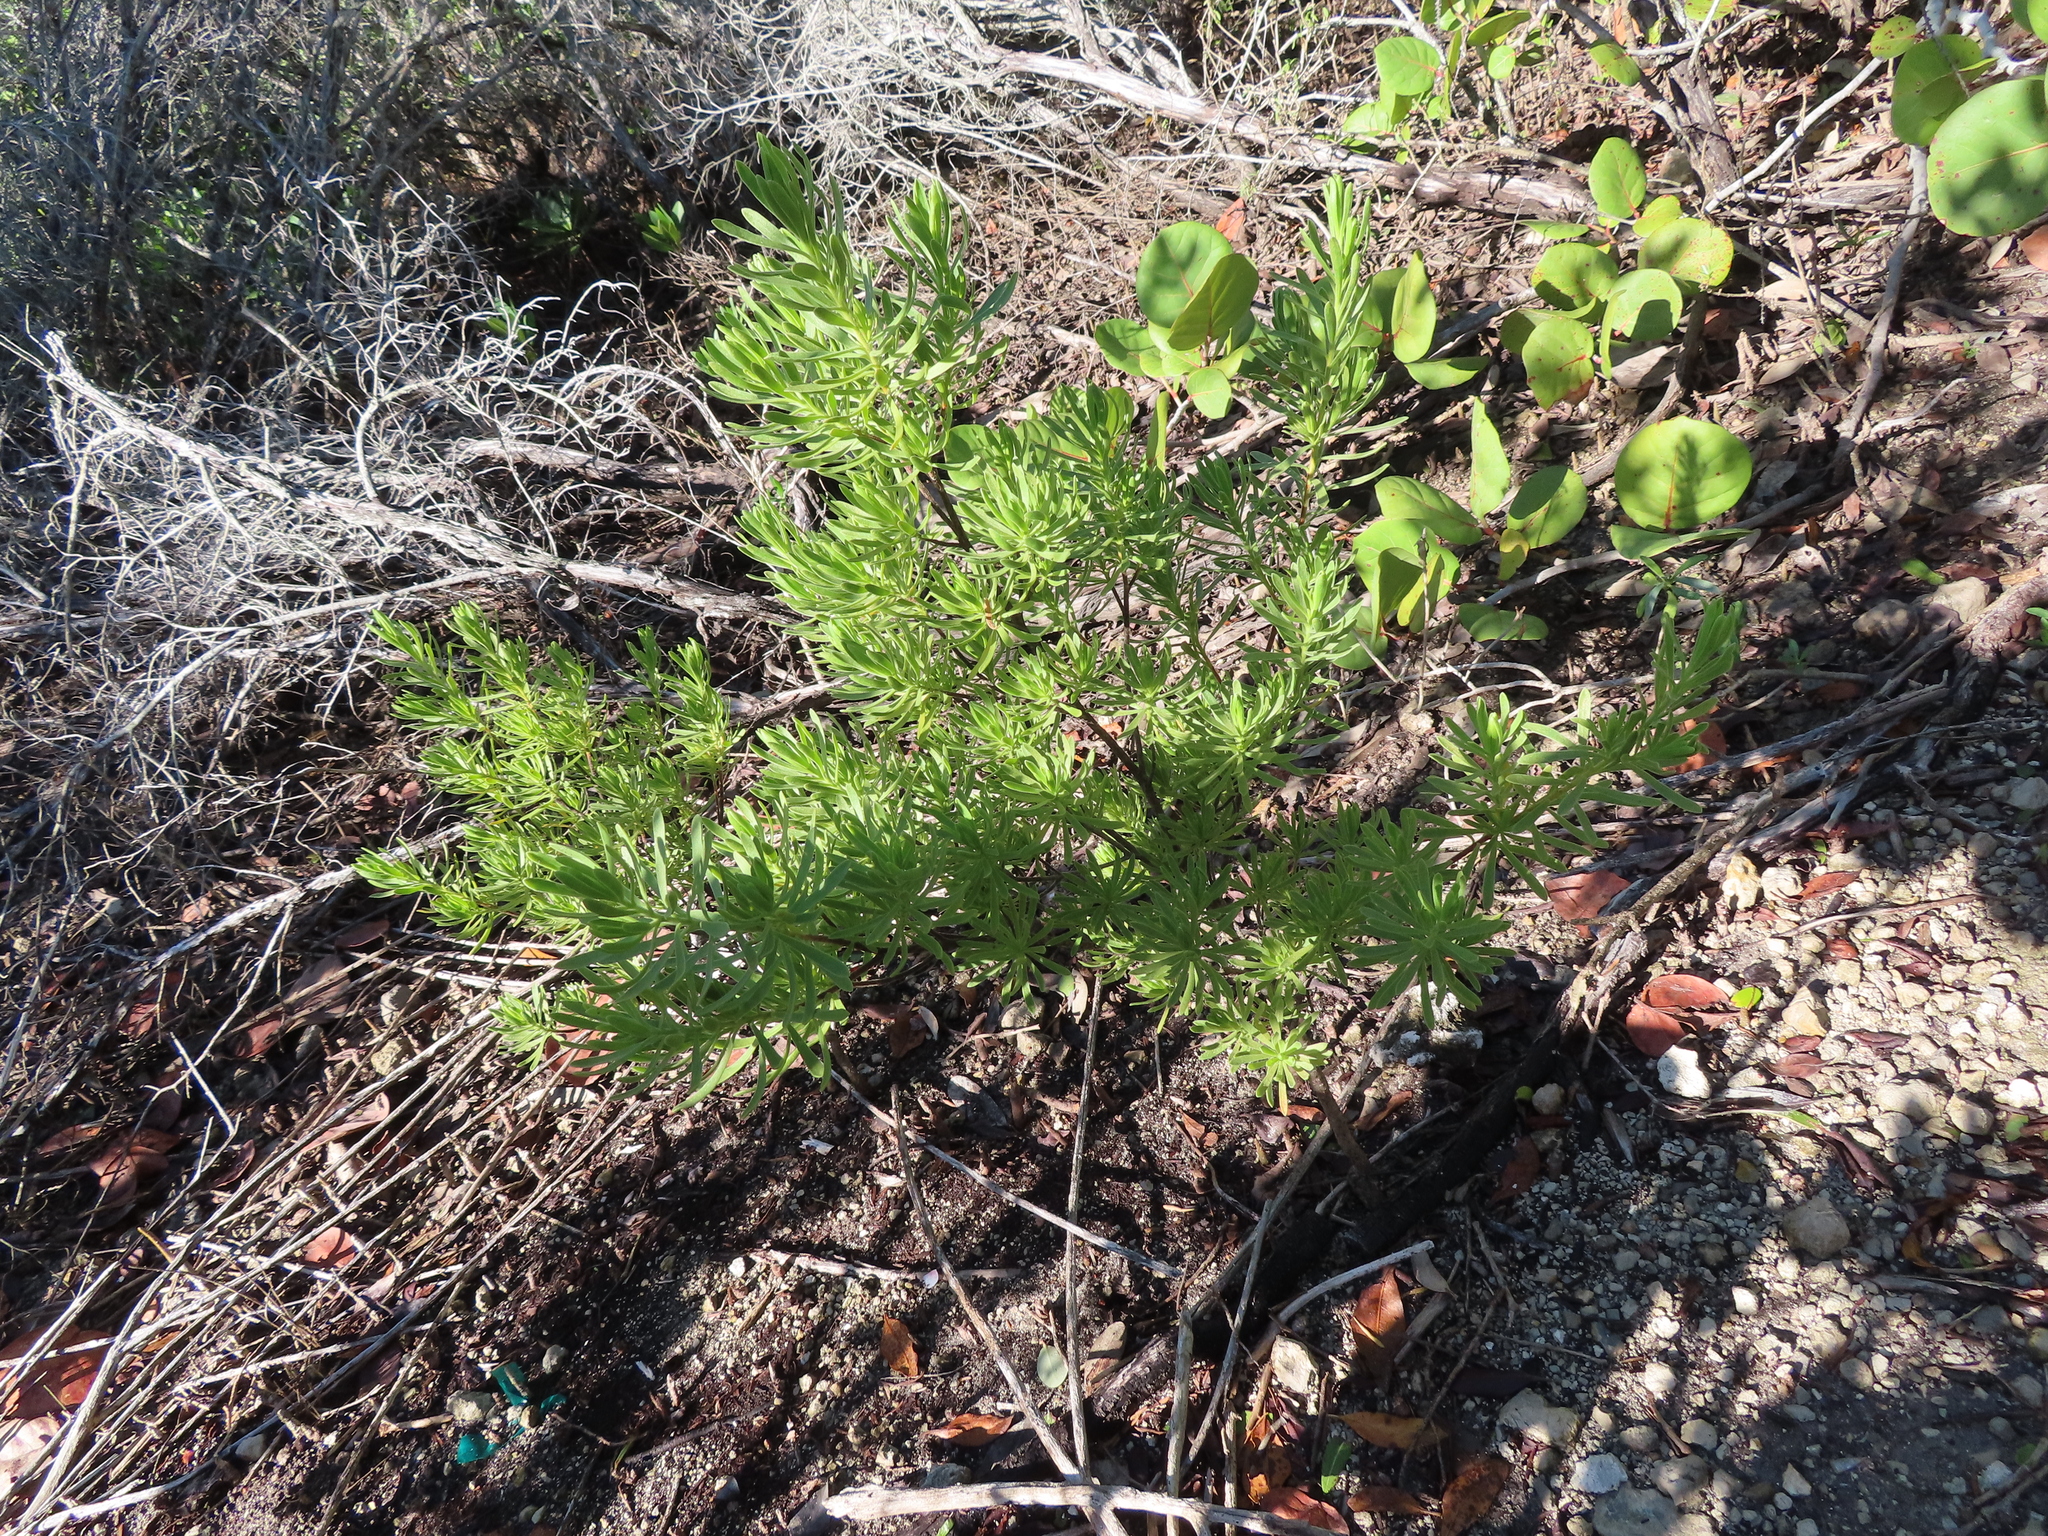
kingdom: Plantae
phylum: Tracheophyta
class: Magnoliopsida
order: Fabales
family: Surianaceae
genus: Suriana
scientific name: Suriana maritima
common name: Bay-cedar
